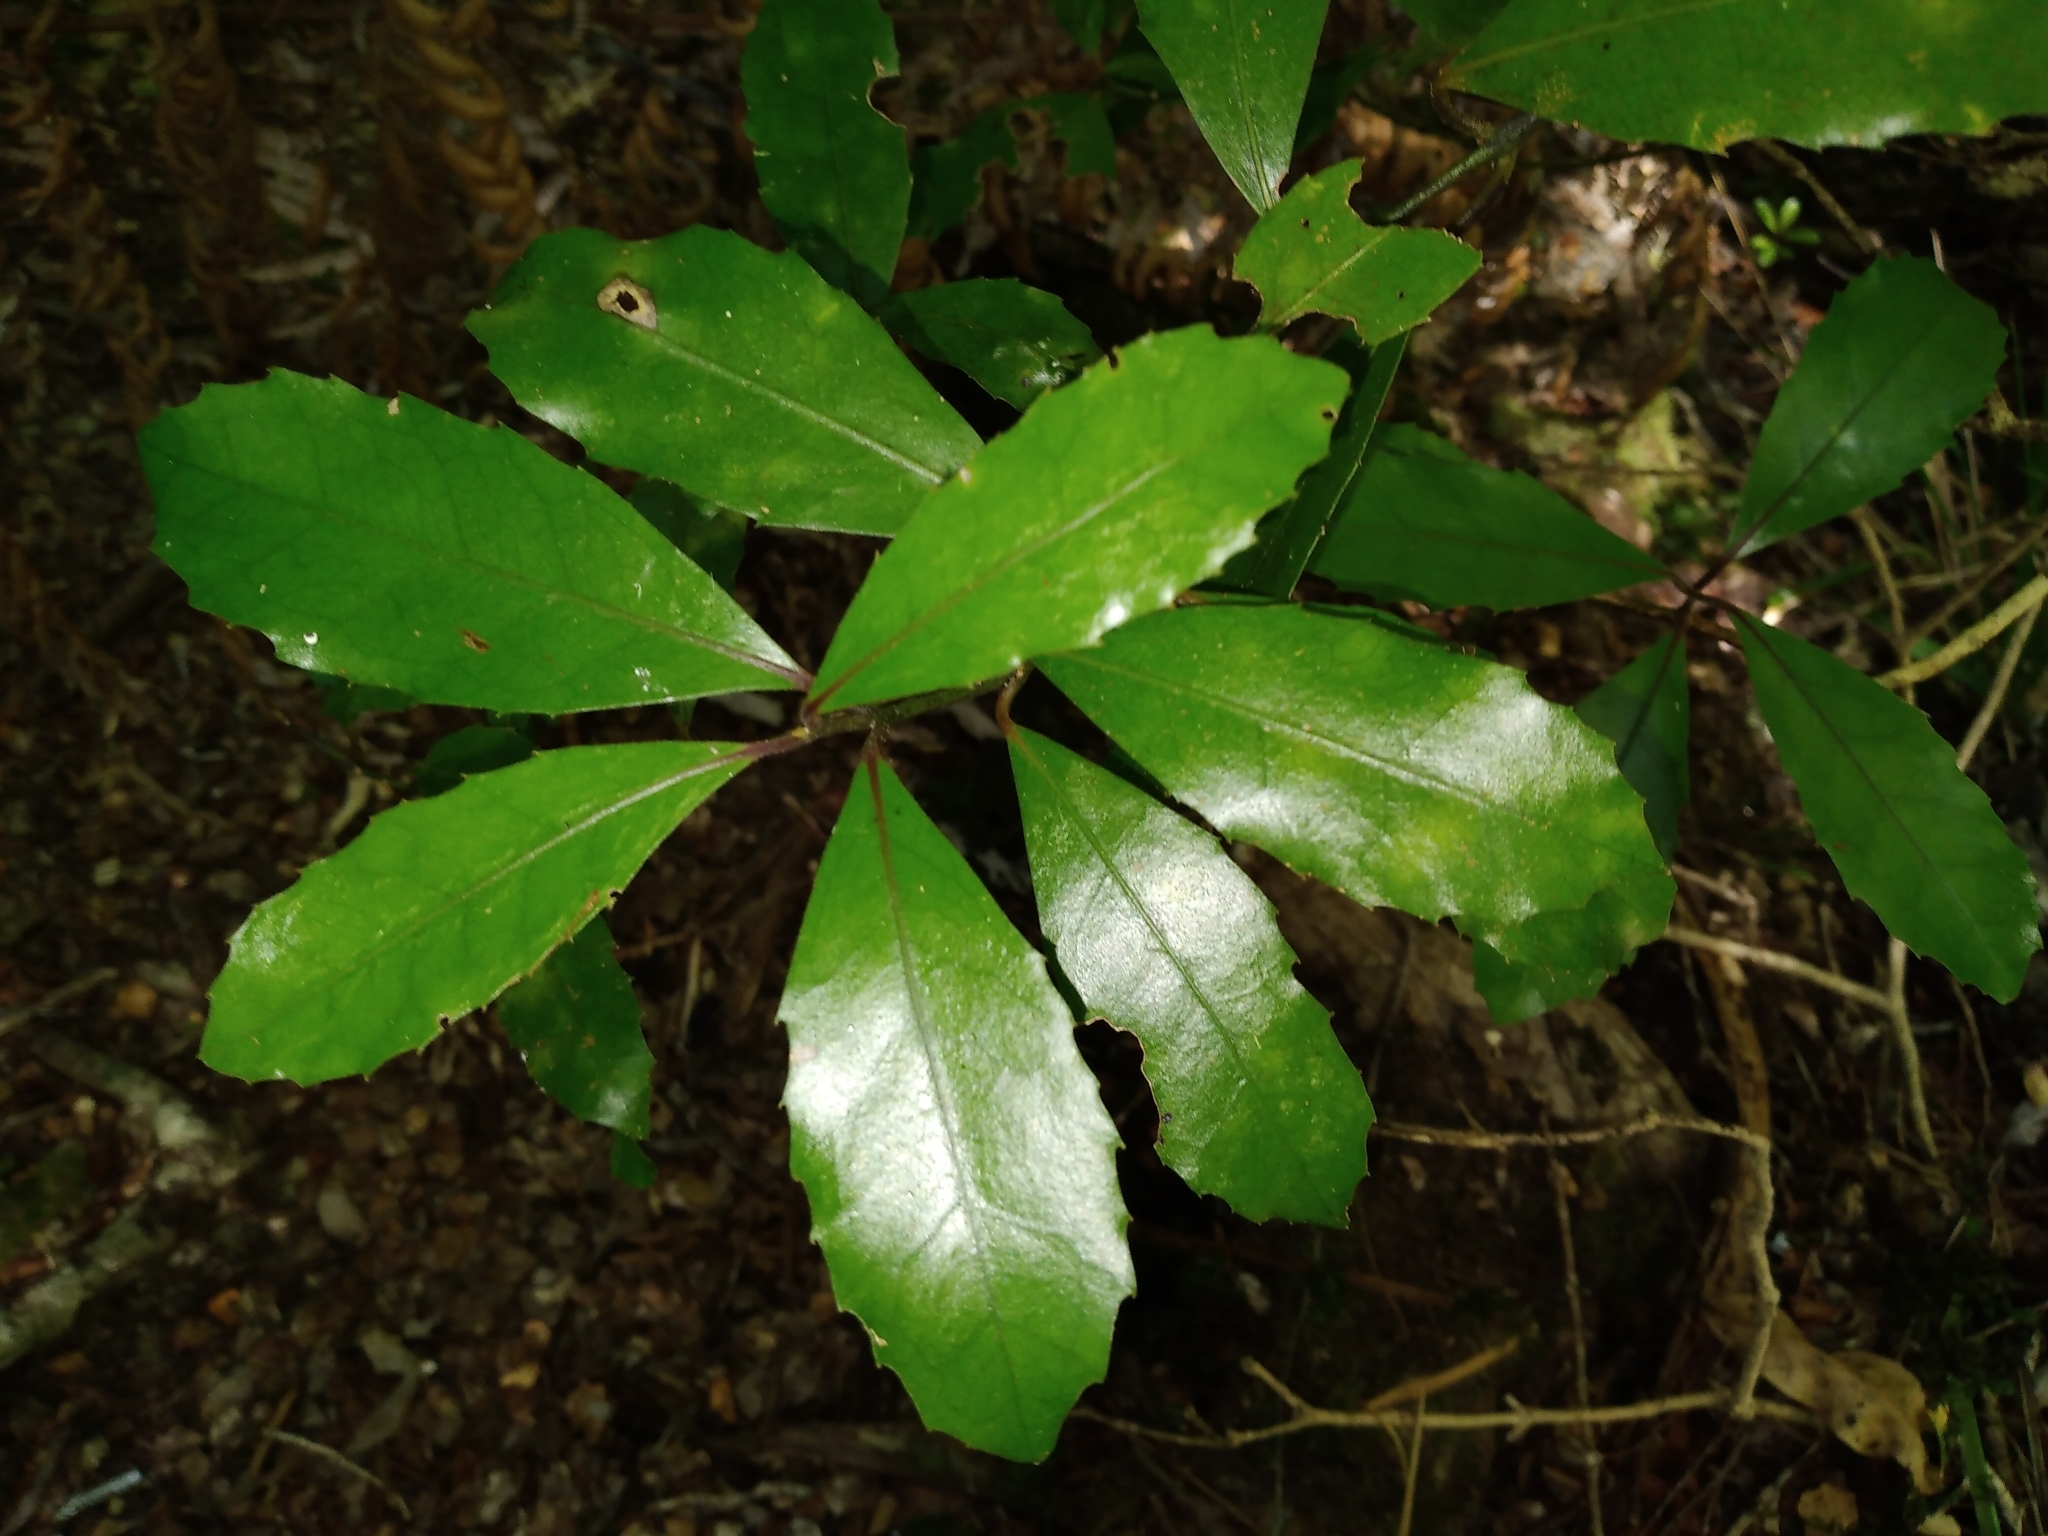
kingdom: Plantae
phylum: Tracheophyta
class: Magnoliopsida
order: Laurales
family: Monimiaceae
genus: Hedycarya
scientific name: Hedycarya arborea
